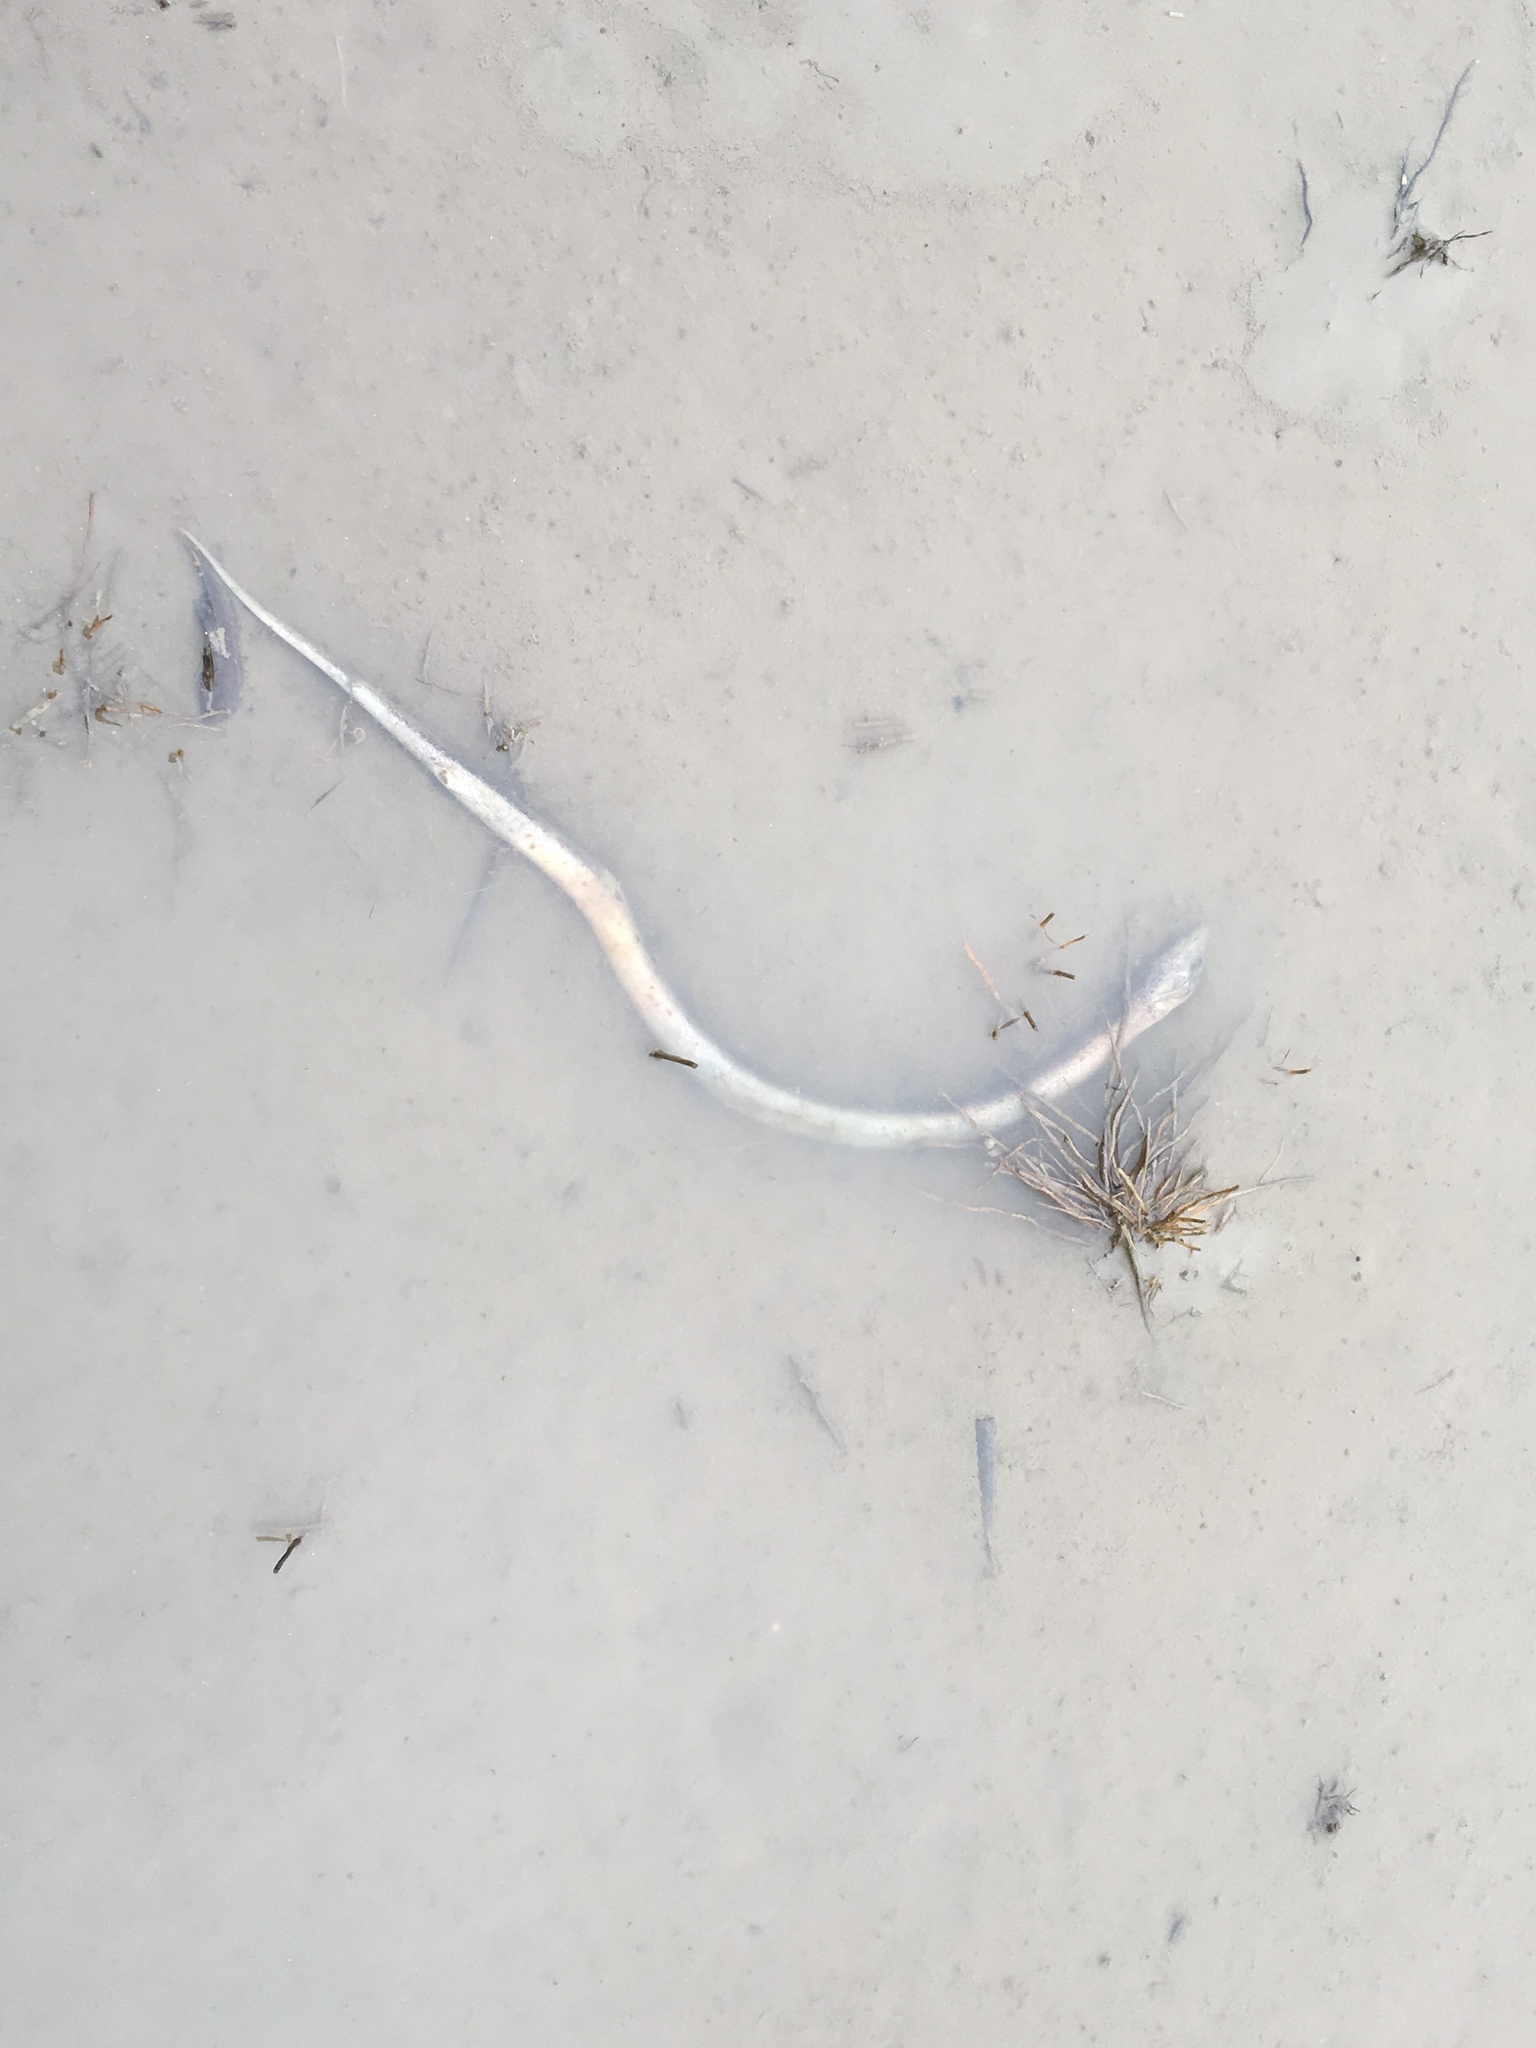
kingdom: Animalia
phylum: Chordata
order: Synbranchiformes
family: Synbranchidae
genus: Monopterus
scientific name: Monopterus albus
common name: Asian swamp eel
